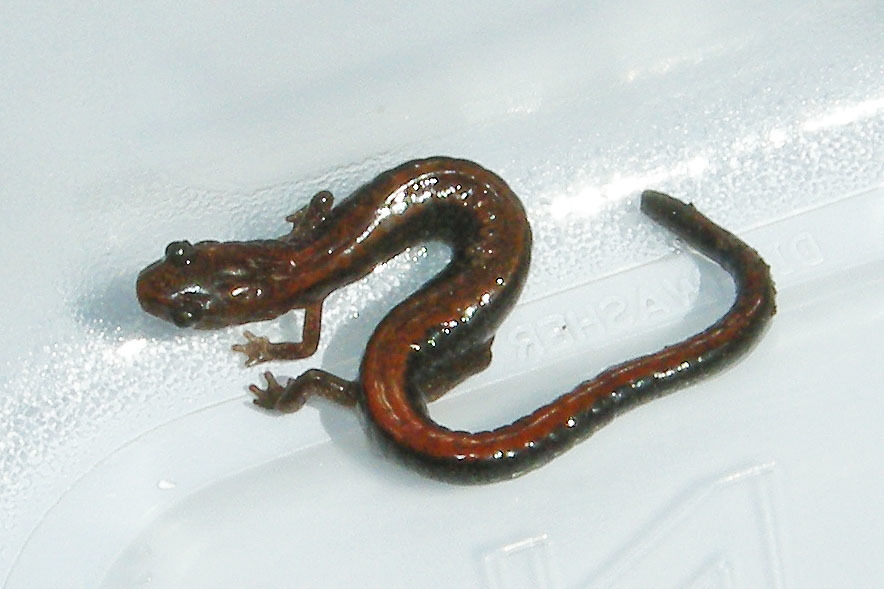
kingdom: Animalia
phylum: Chordata
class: Amphibia
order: Caudata
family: Plethodontidae
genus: Plethodon
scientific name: Plethodon cinereus
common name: Redback salamander
